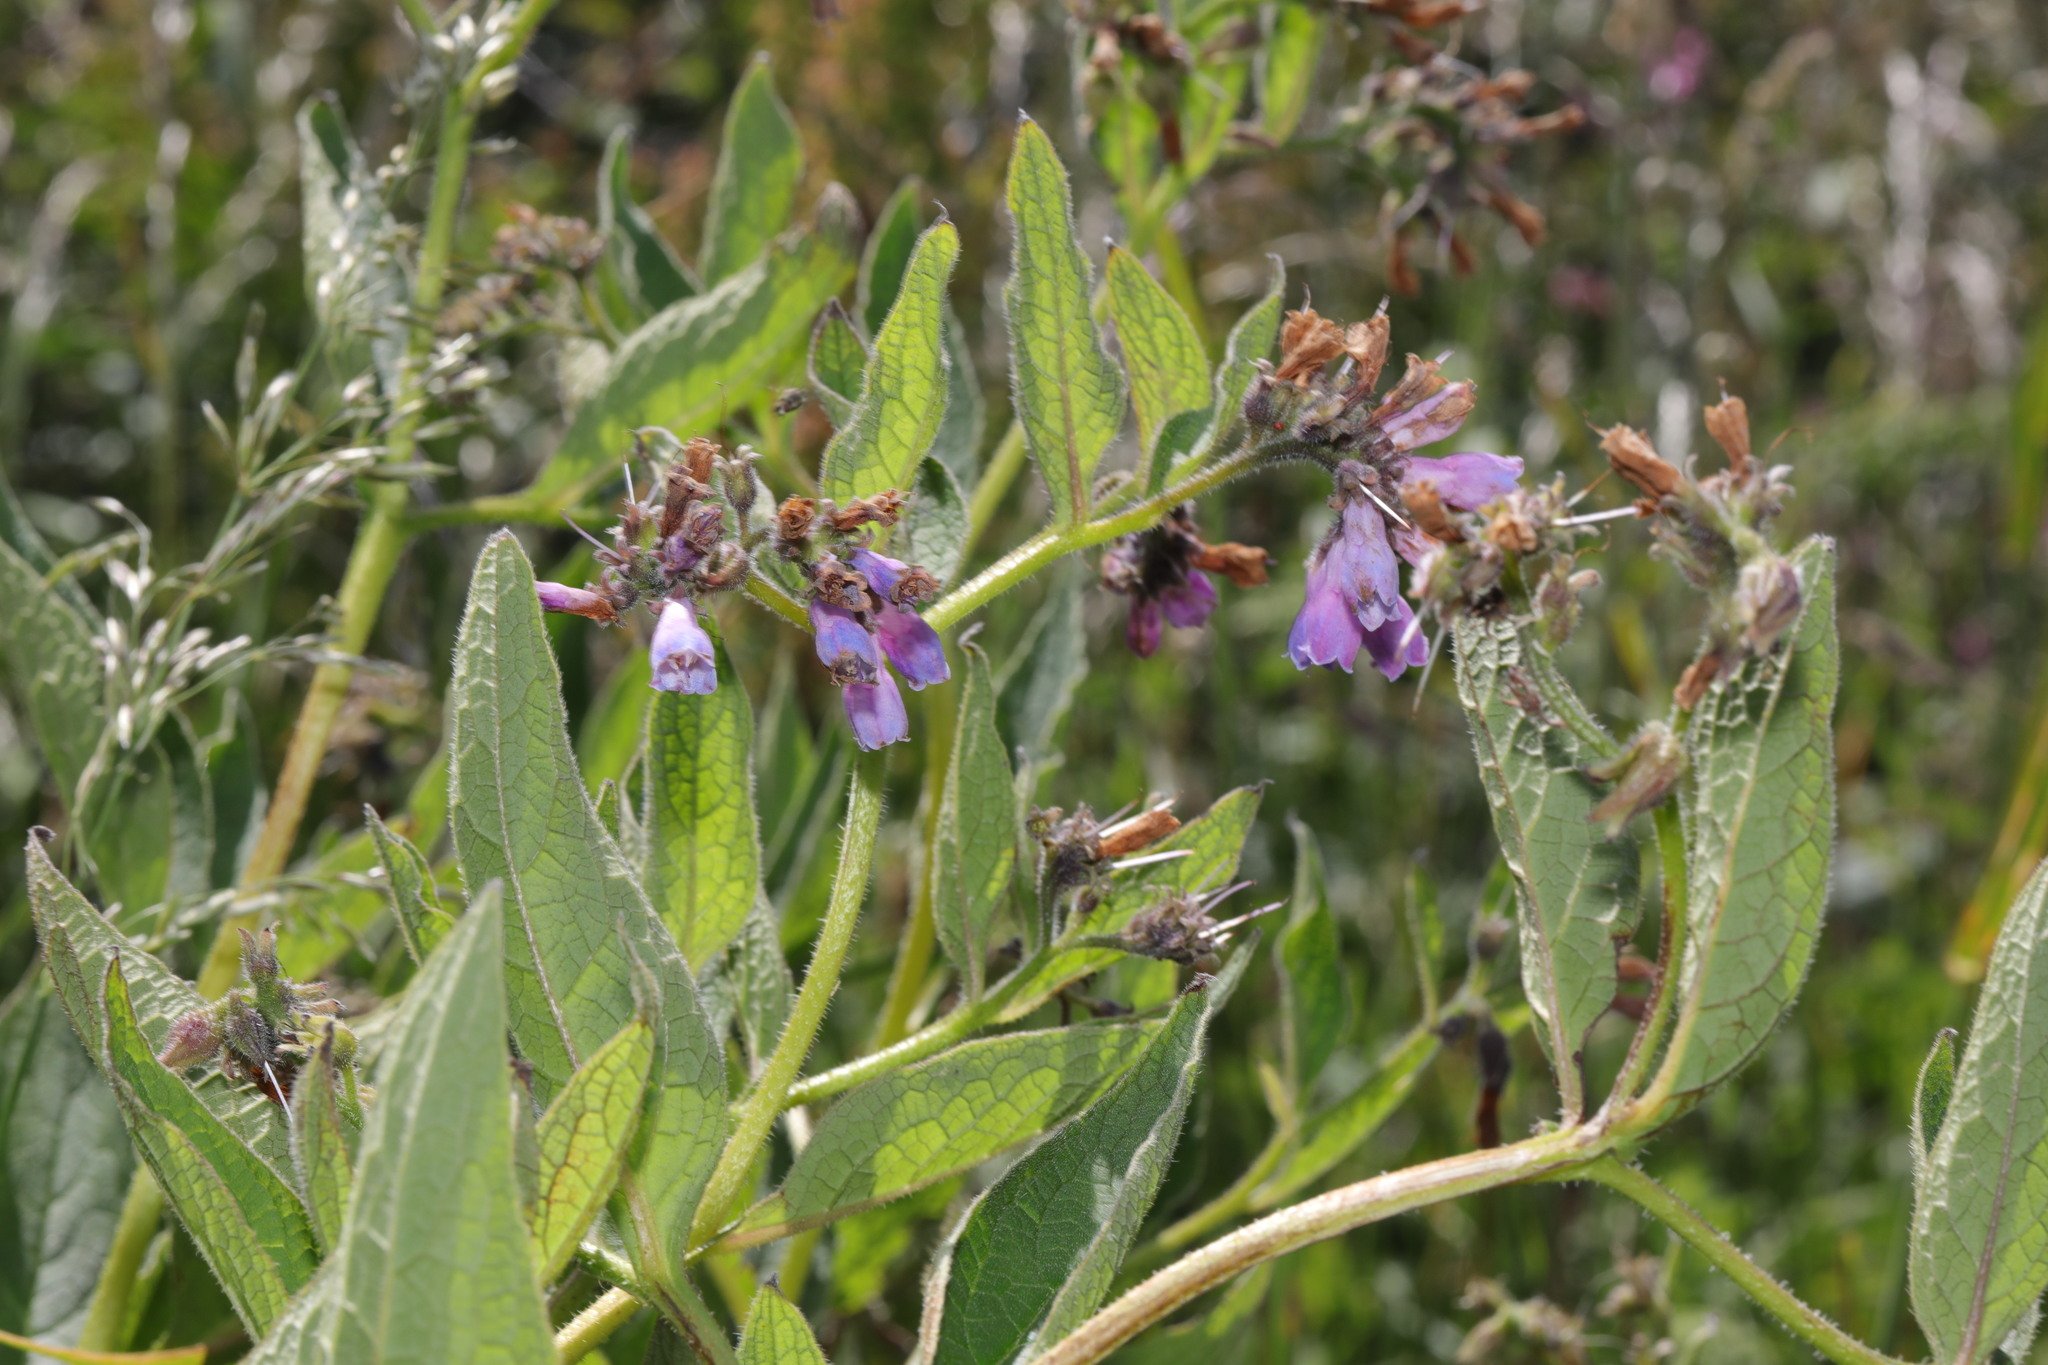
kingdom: Plantae
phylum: Tracheophyta
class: Magnoliopsida
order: Boraginales
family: Boraginaceae
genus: Symphytum
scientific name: Symphytum uplandicum
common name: Russian comfrey
